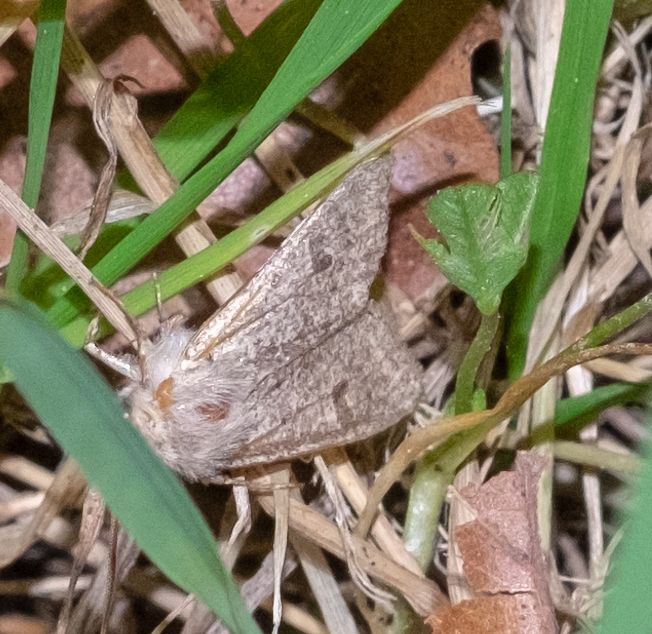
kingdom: Animalia
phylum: Arthropoda
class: Insecta
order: Lepidoptera
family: Noctuidae
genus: Orthosia
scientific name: Orthosia cruda
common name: Small quaker
